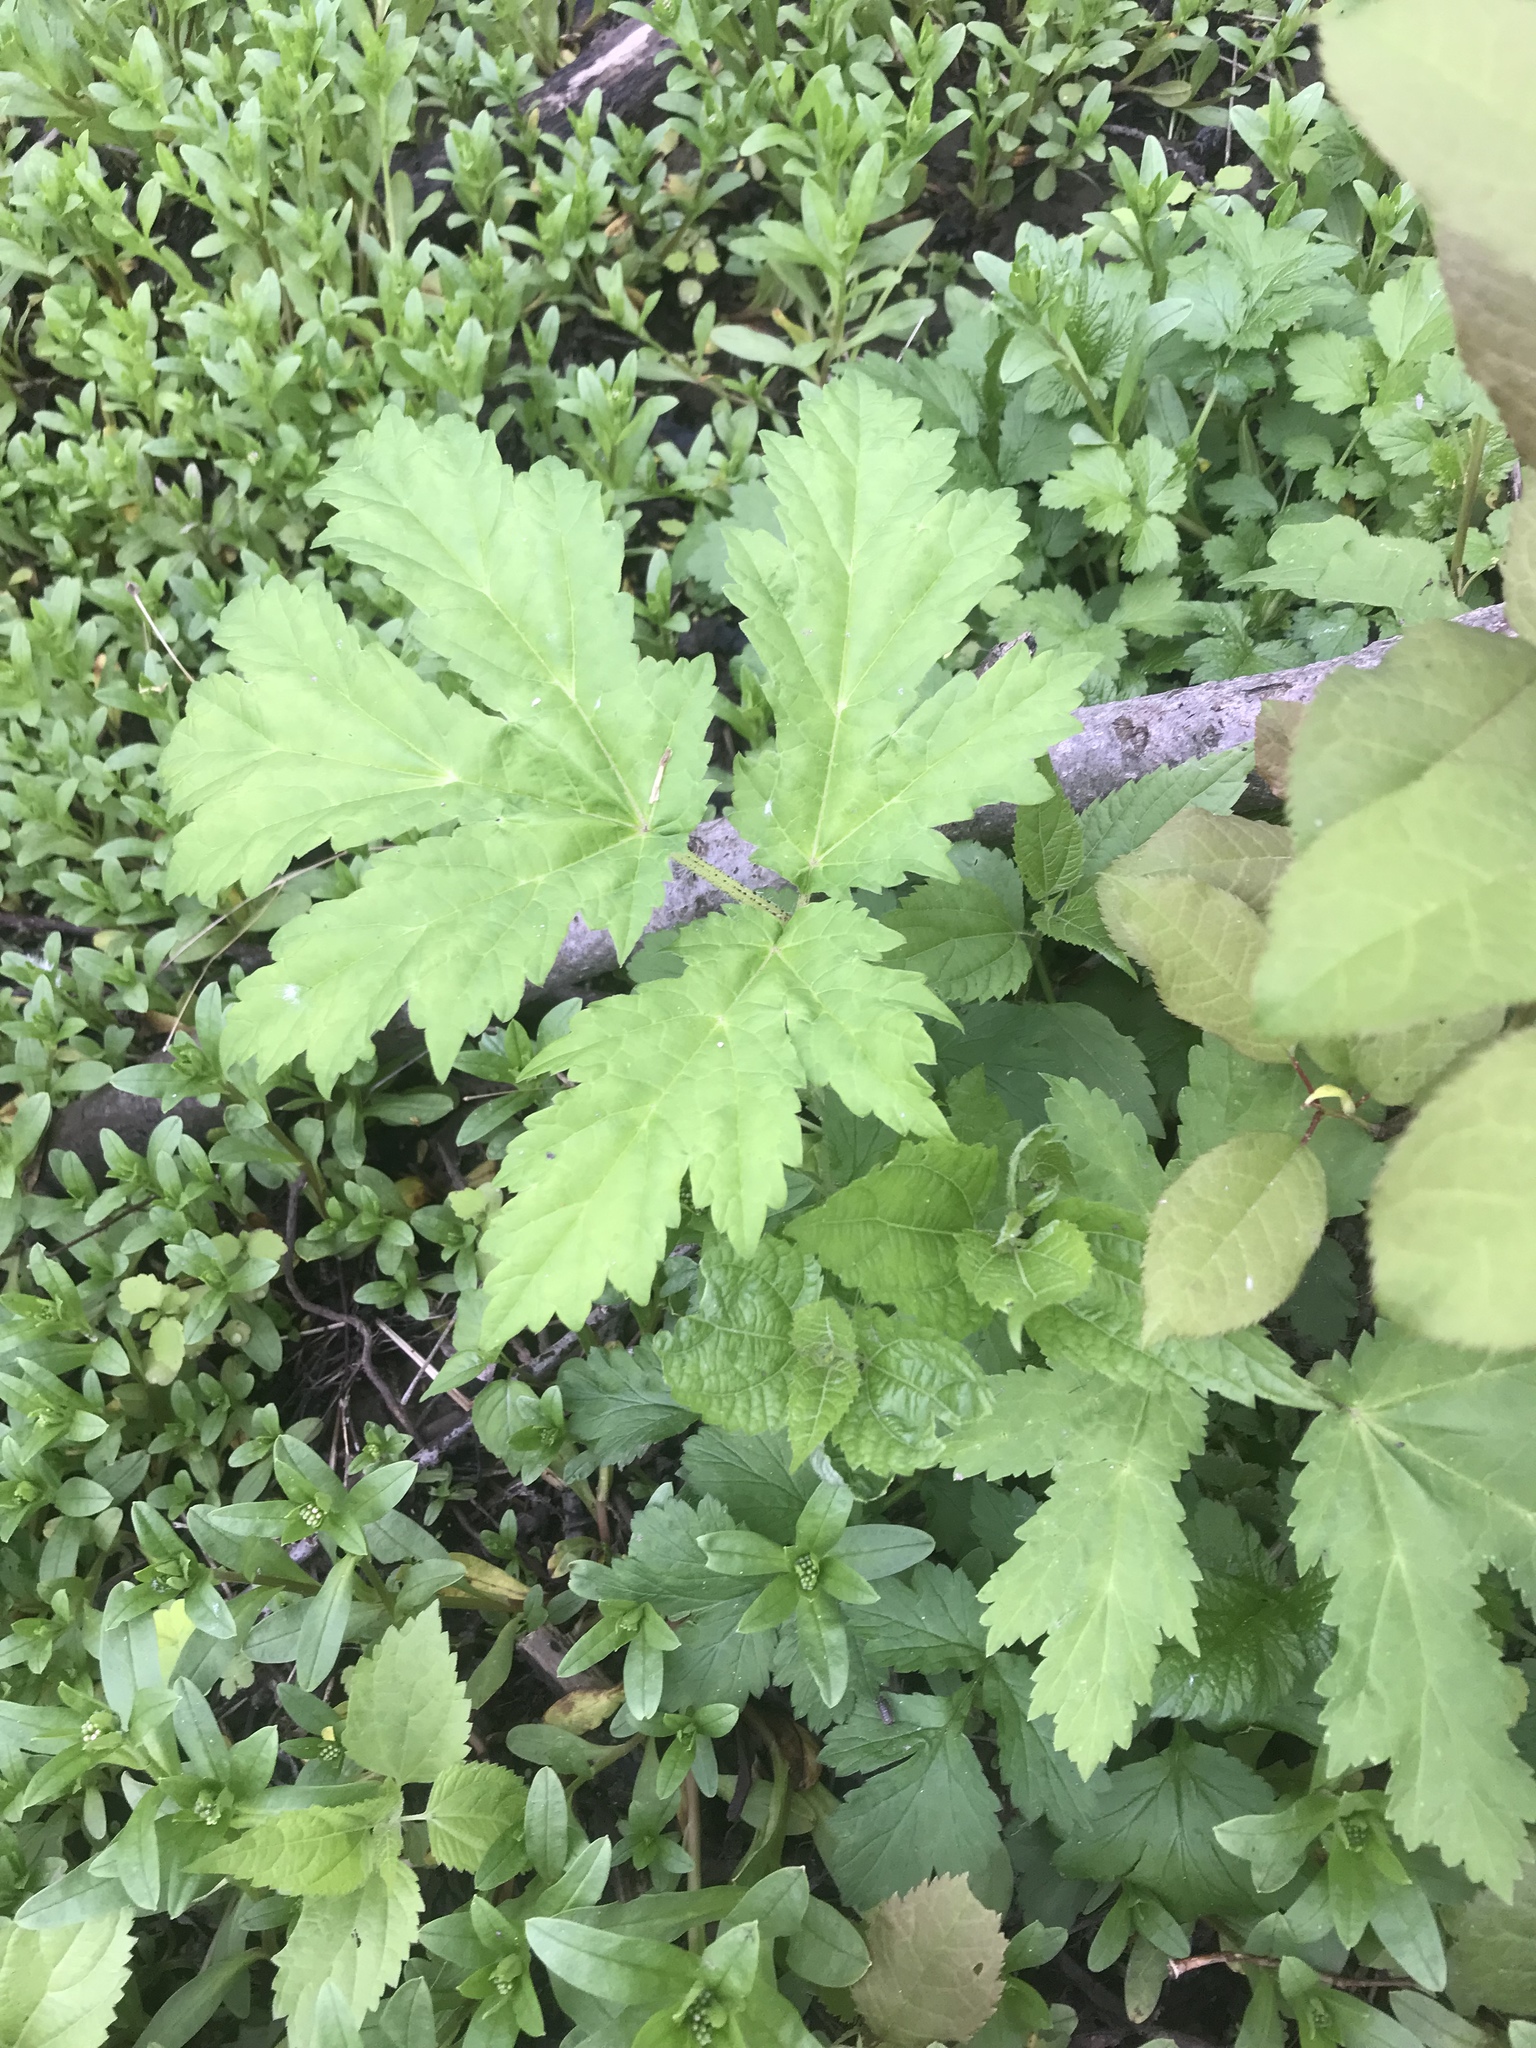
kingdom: Plantae
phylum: Tracheophyta
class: Magnoliopsida
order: Apiales
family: Apiaceae
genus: Heracleum
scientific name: Heracleum mantegazzianum
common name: Giant hogweed
